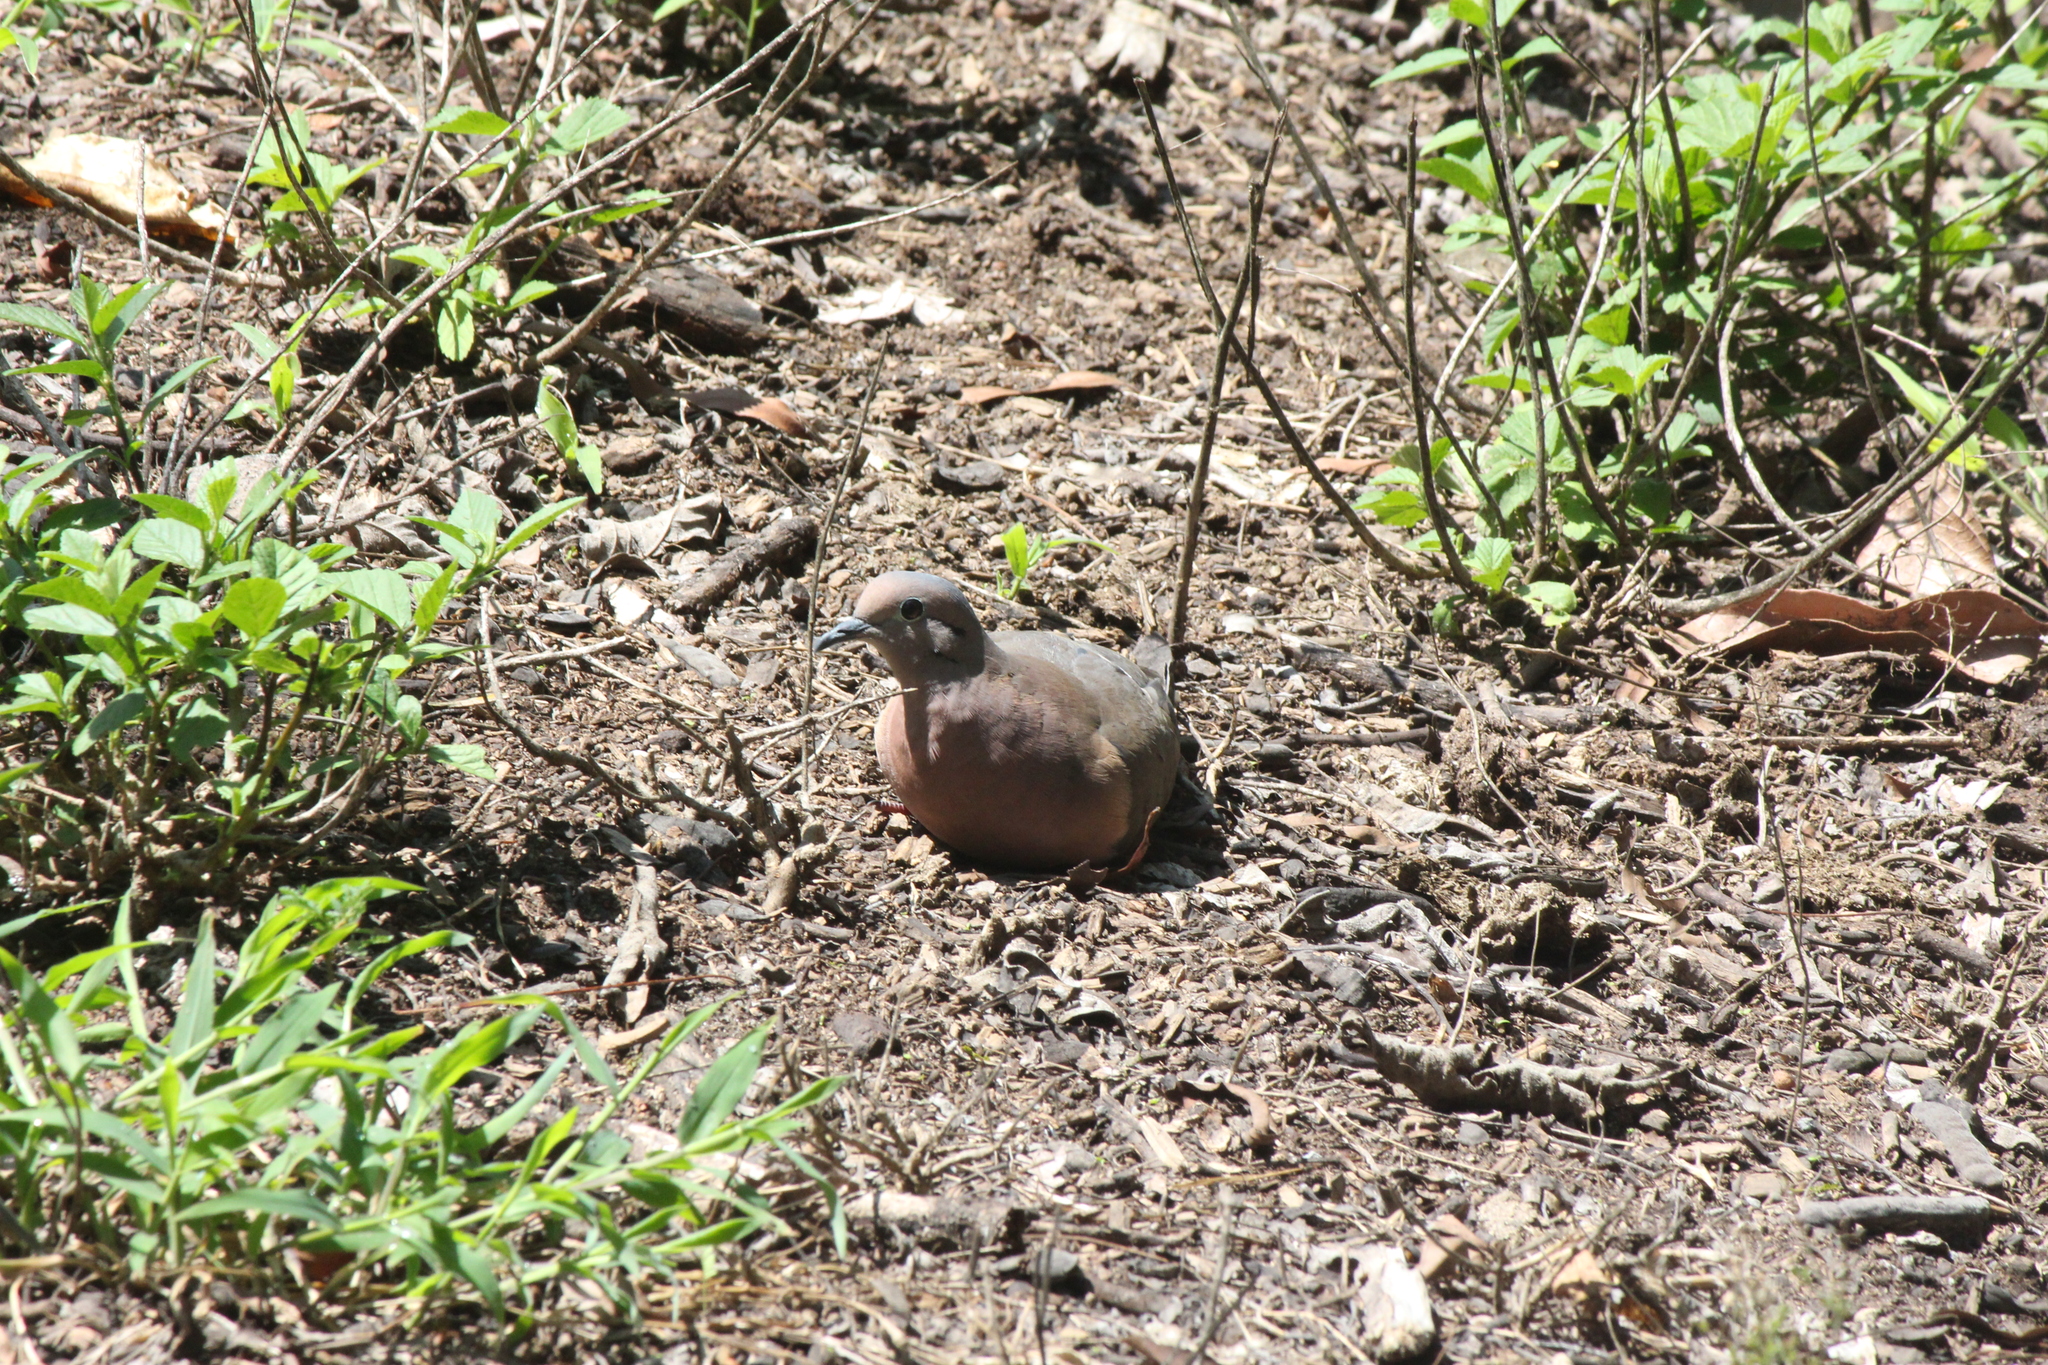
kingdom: Animalia
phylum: Chordata
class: Aves
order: Columbiformes
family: Columbidae
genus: Zenaida
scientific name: Zenaida auriculata
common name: Eared dove
